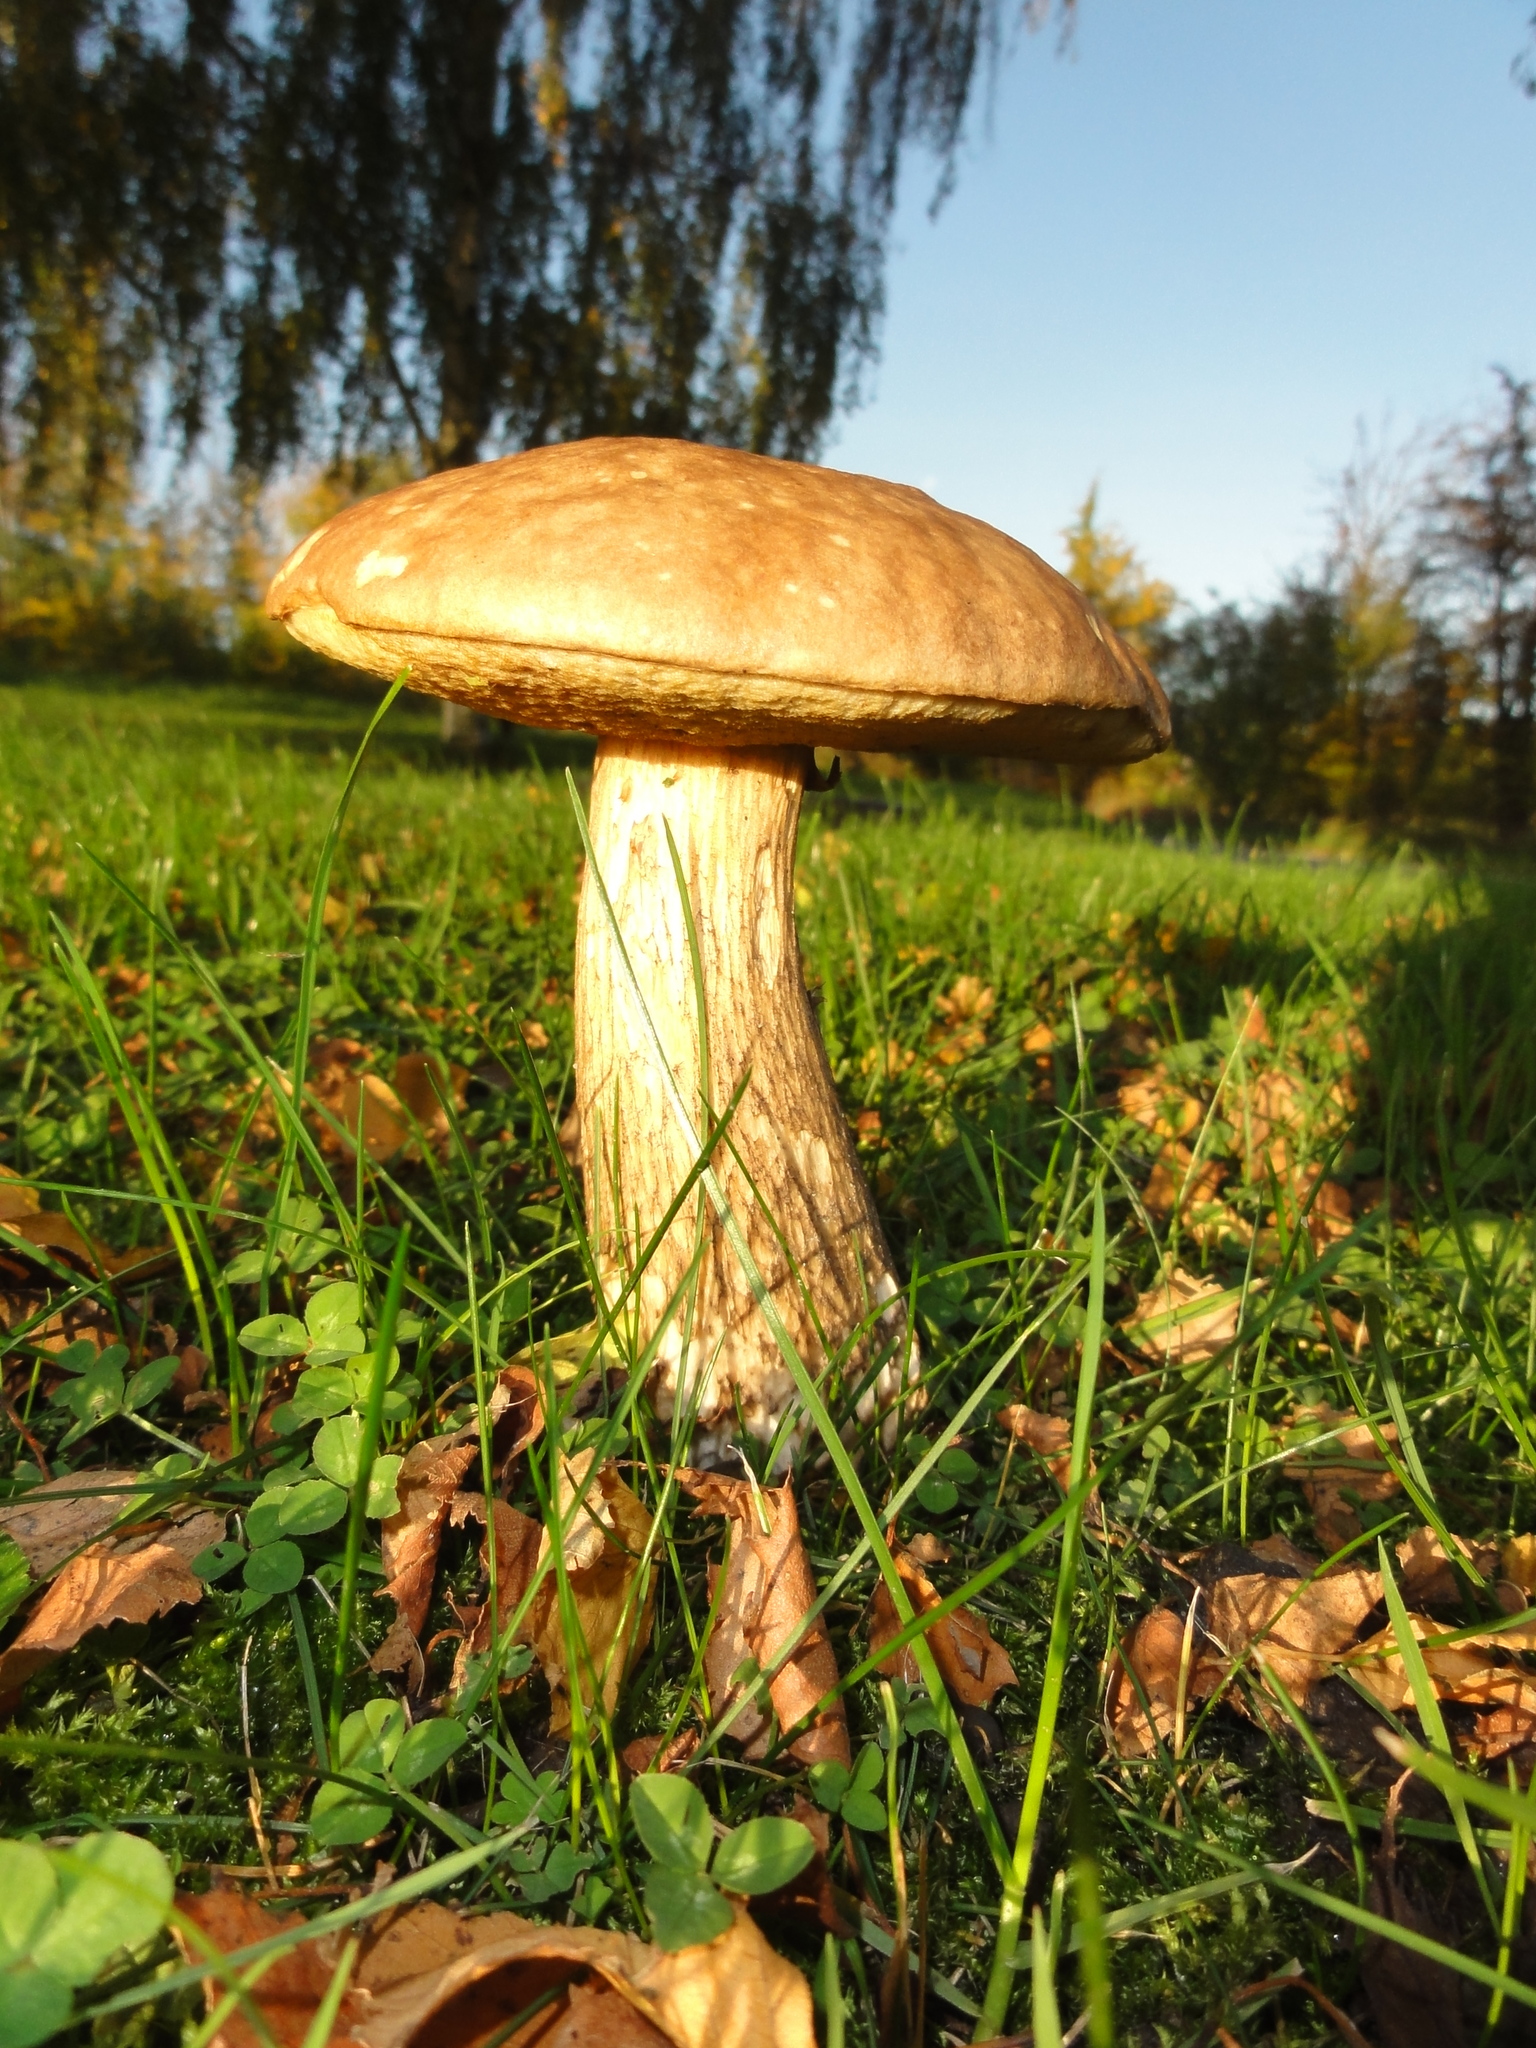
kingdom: Fungi
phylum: Basidiomycota
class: Agaricomycetes
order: Boletales
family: Boletaceae
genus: Leccinum
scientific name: Leccinum scabrum
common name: Blushing bolete
